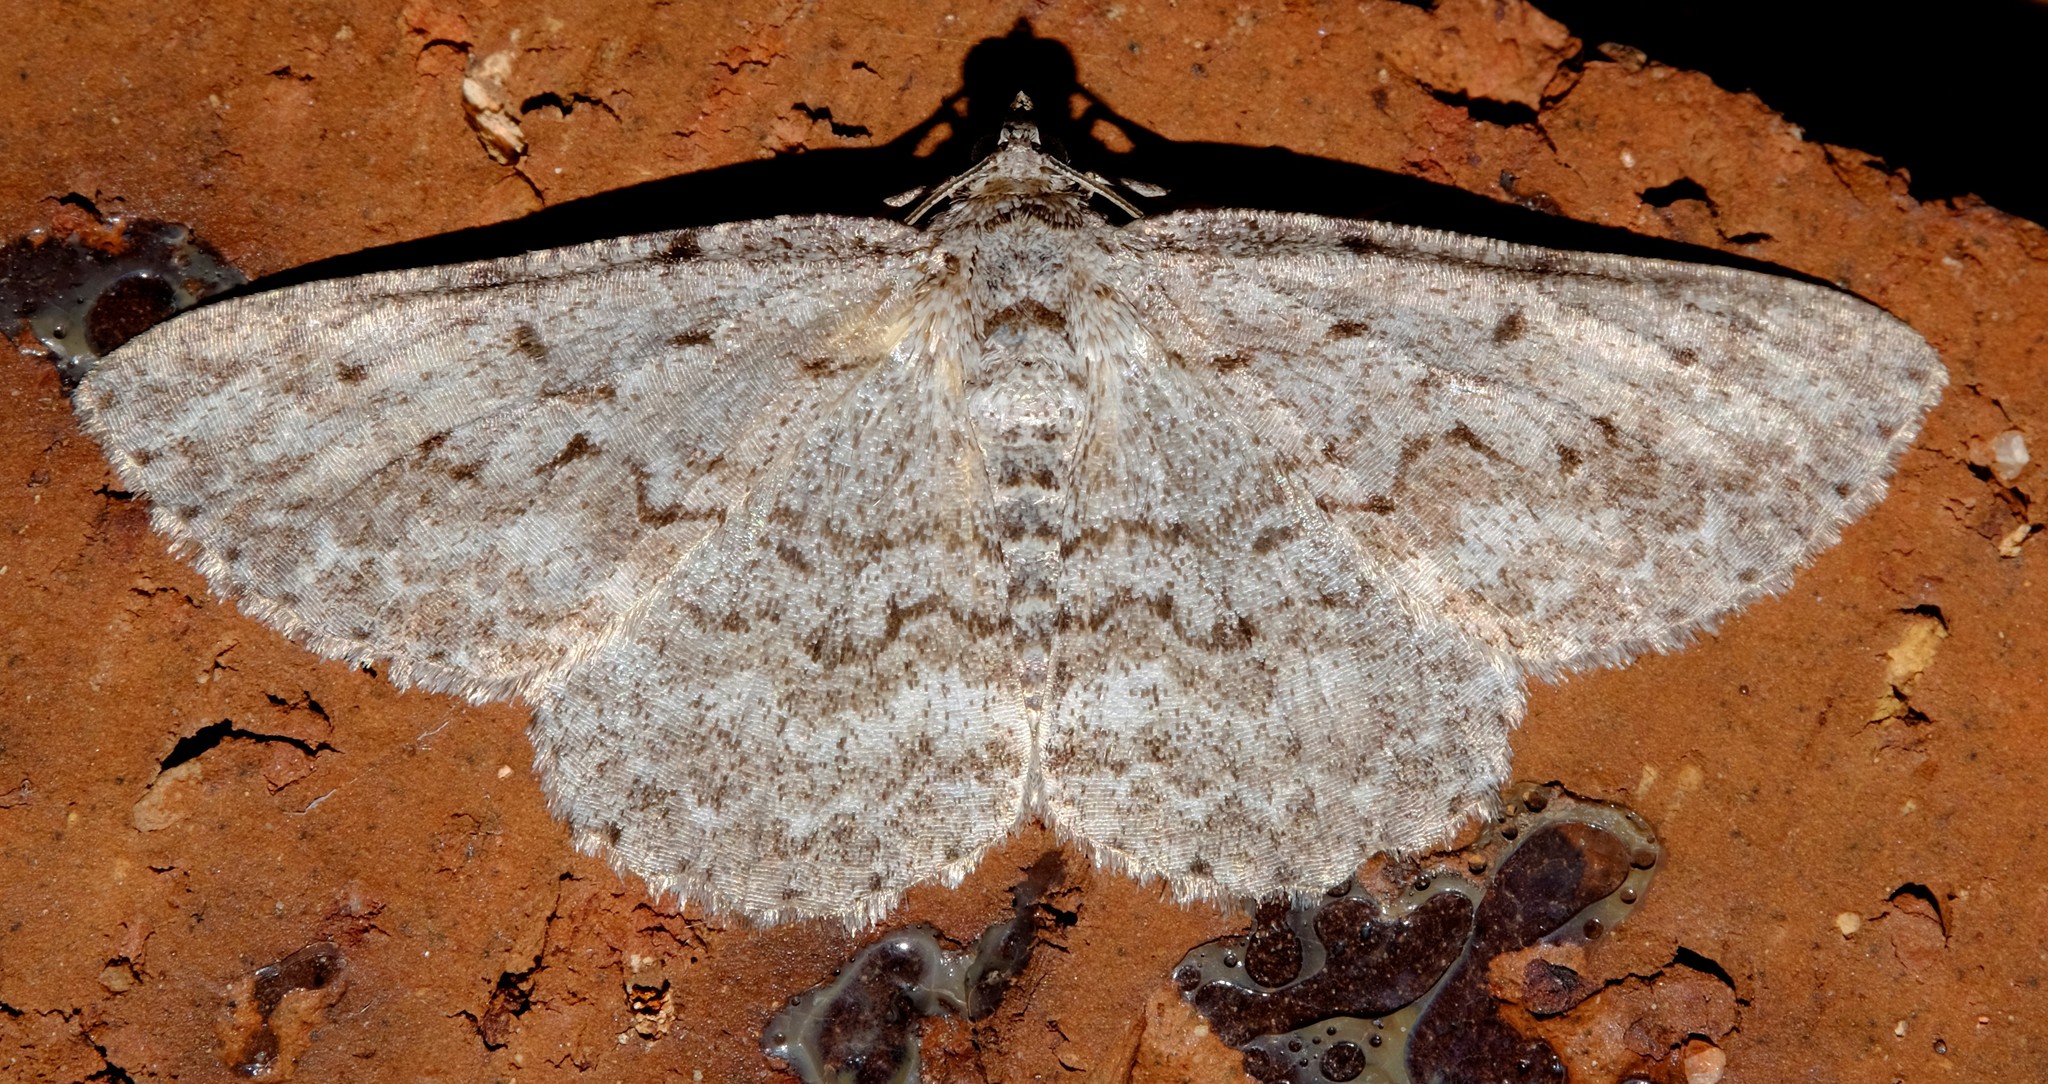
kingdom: Animalia
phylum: Arthropoda
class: Insecta
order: Lepidoptera
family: Geometridae
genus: Psilosticha
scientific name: Psilosticha absorpta
